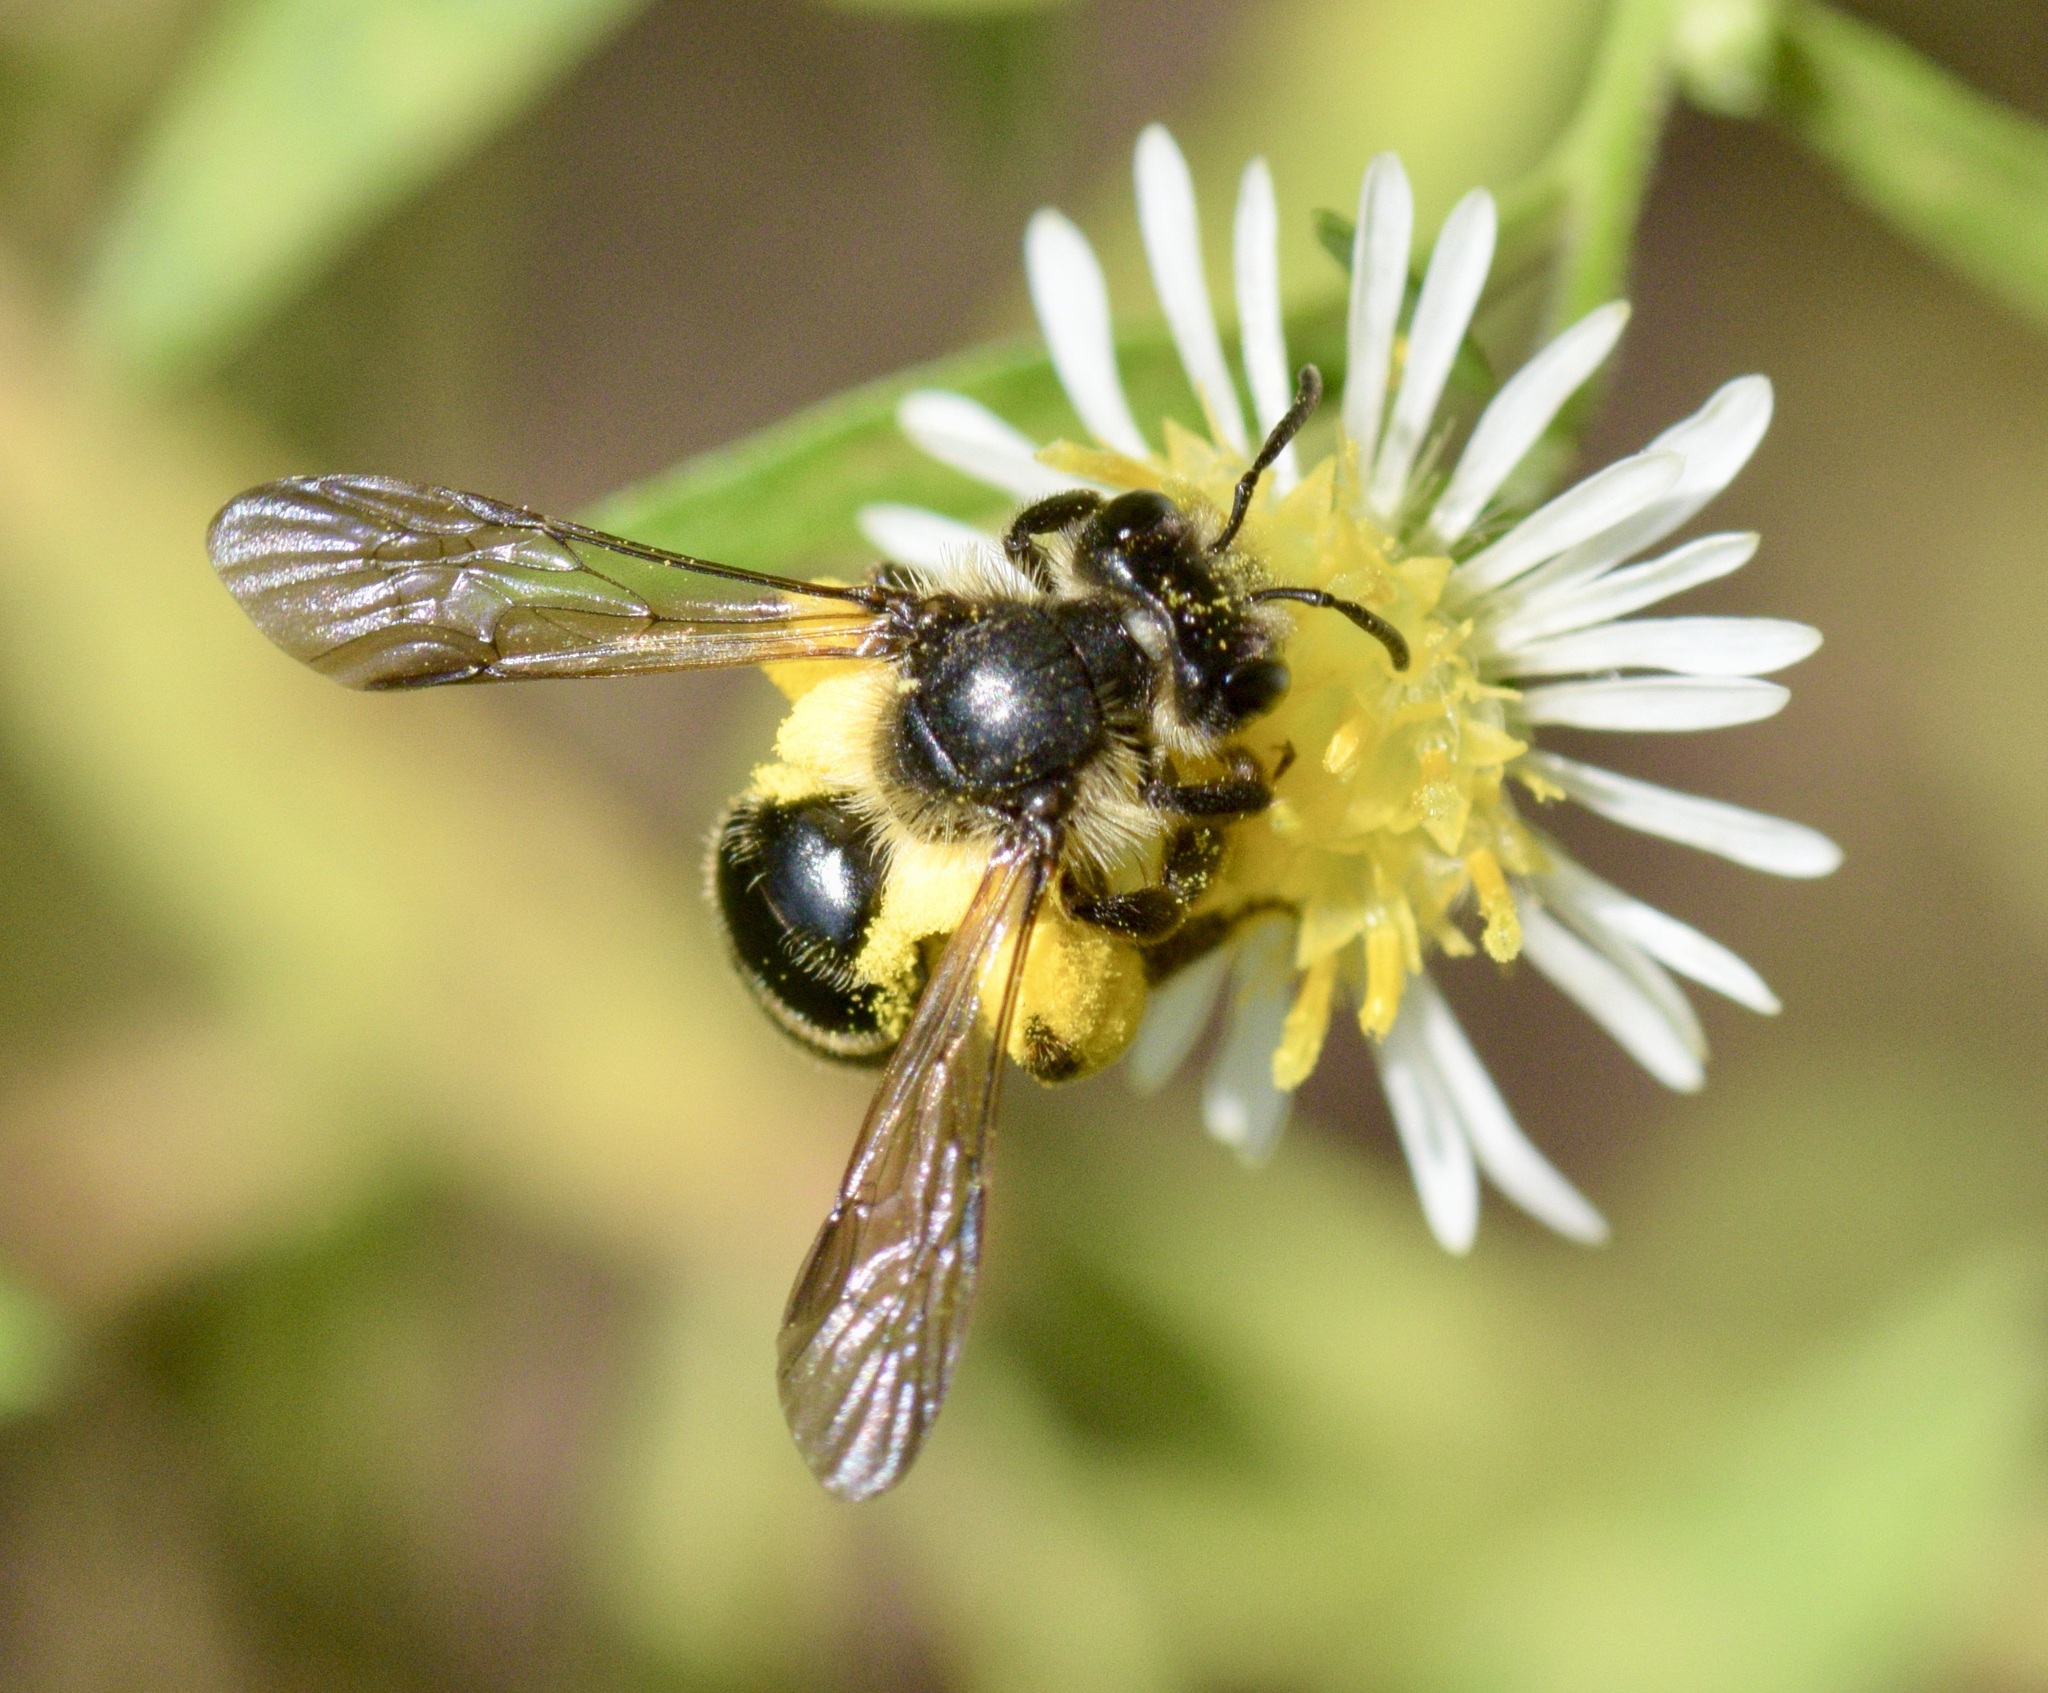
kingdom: Animalia
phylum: Arthropoda
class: Insecta
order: Hymenoptera
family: Andrenidae
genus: Andrena
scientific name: Andrena nubecula
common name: Cloudy-winged mining bee
